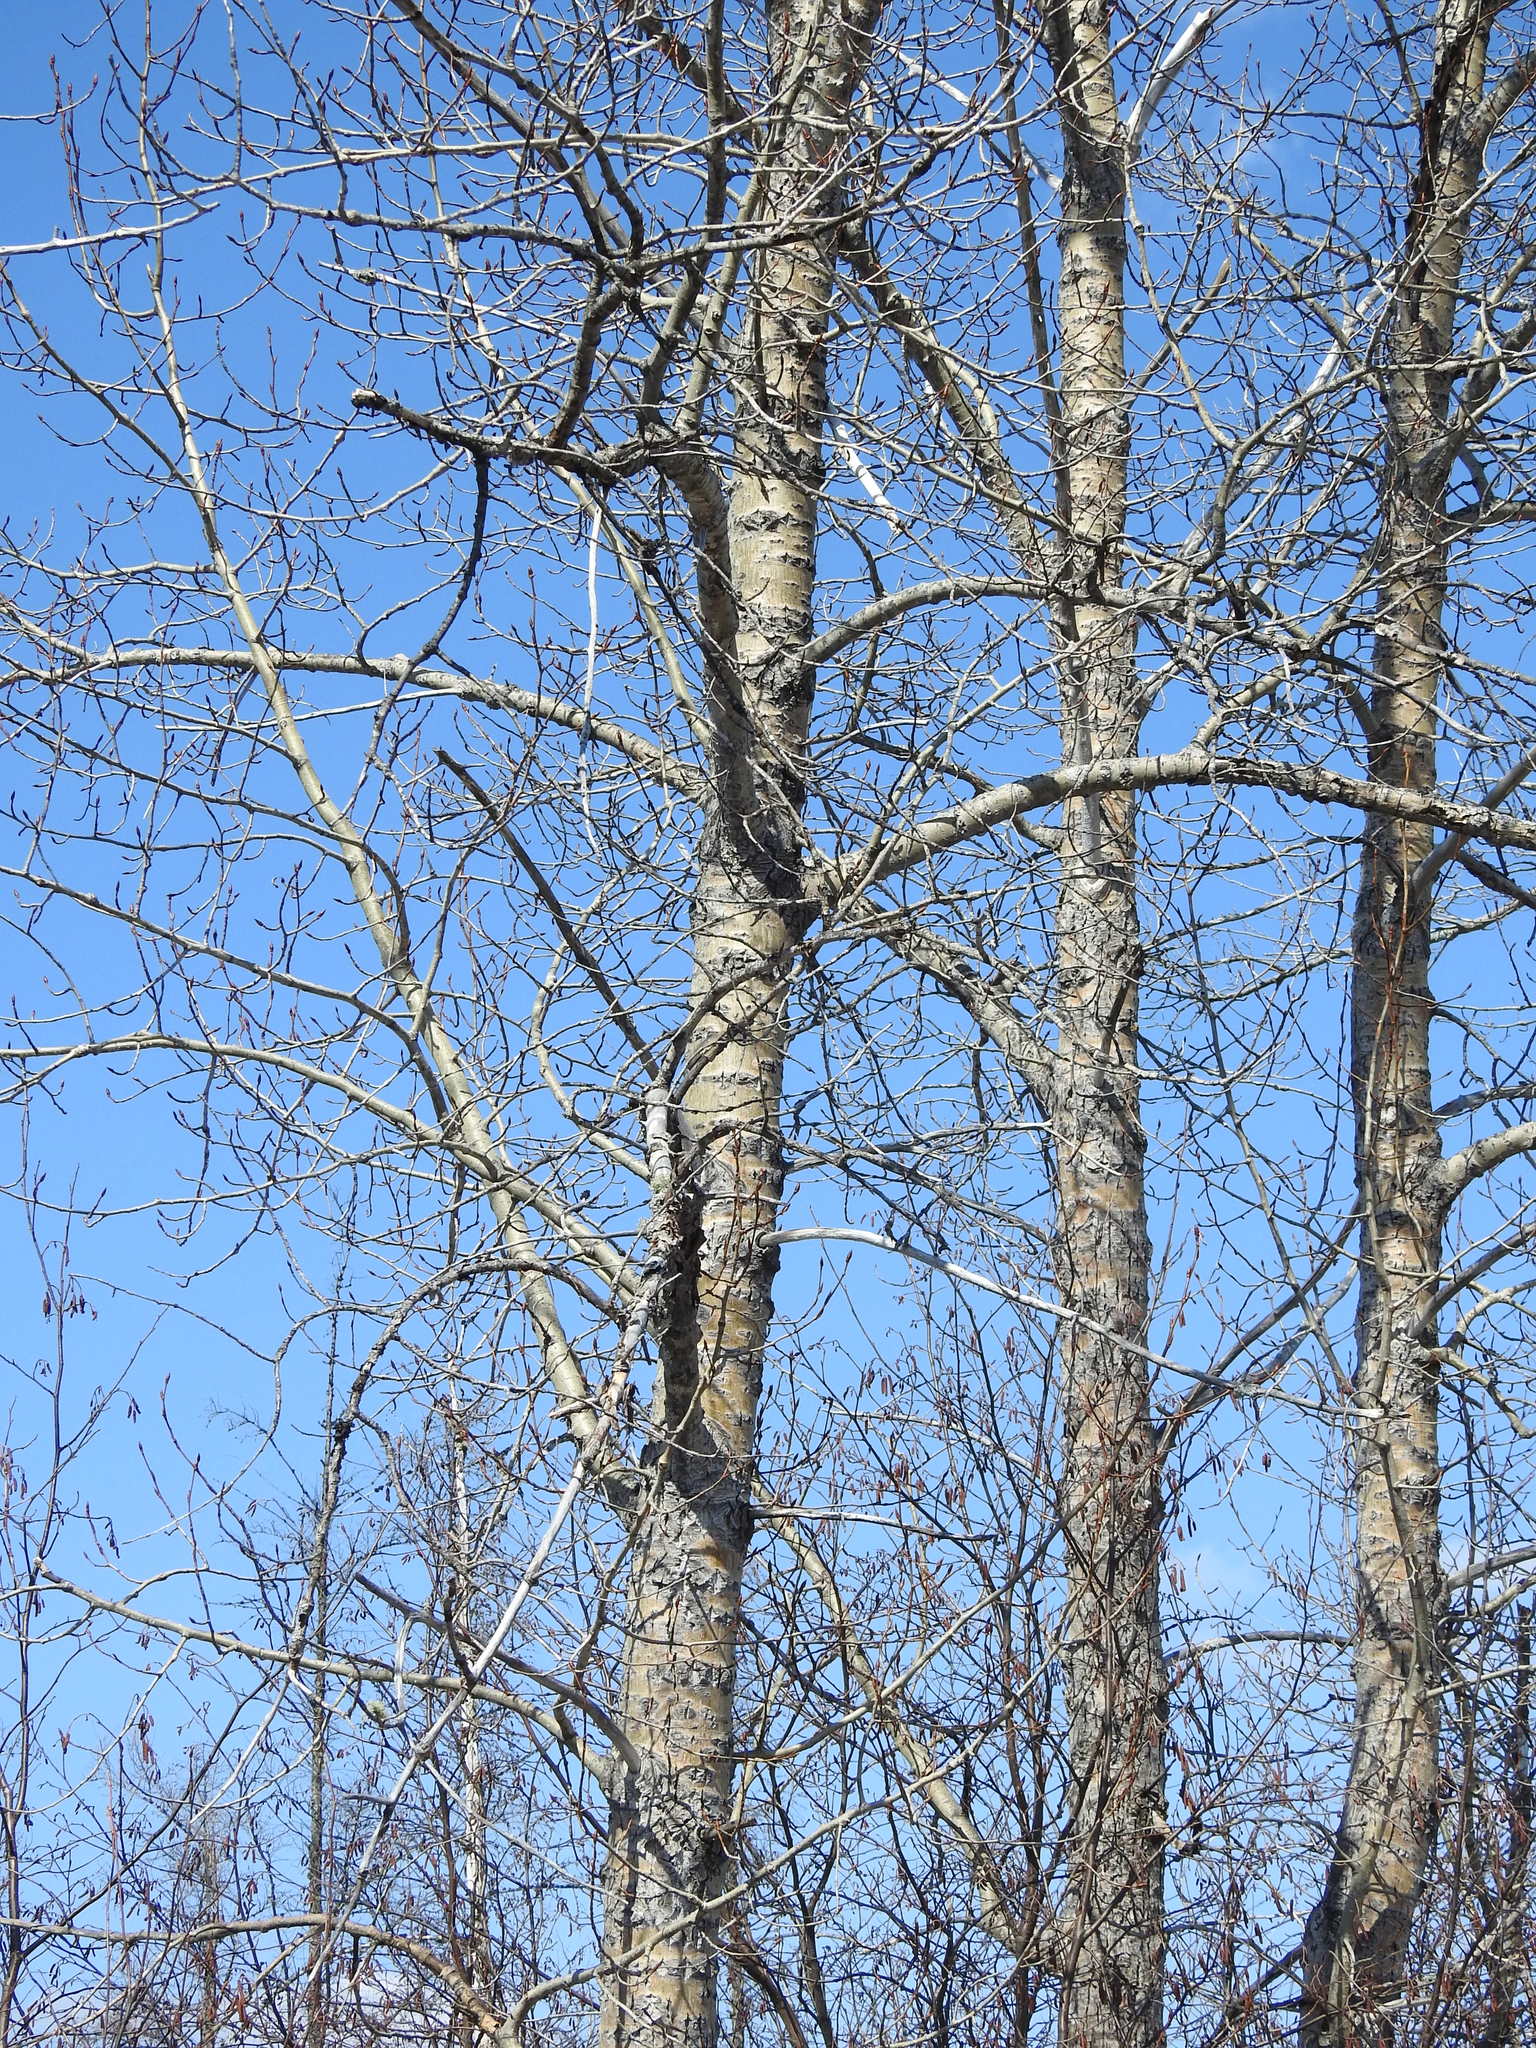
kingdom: Plantae
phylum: Tracheophyta
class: Magnoliopsida
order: Malpighiales
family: Salicaceae
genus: Populus
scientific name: Populus balsamifera
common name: Balsam poplar
